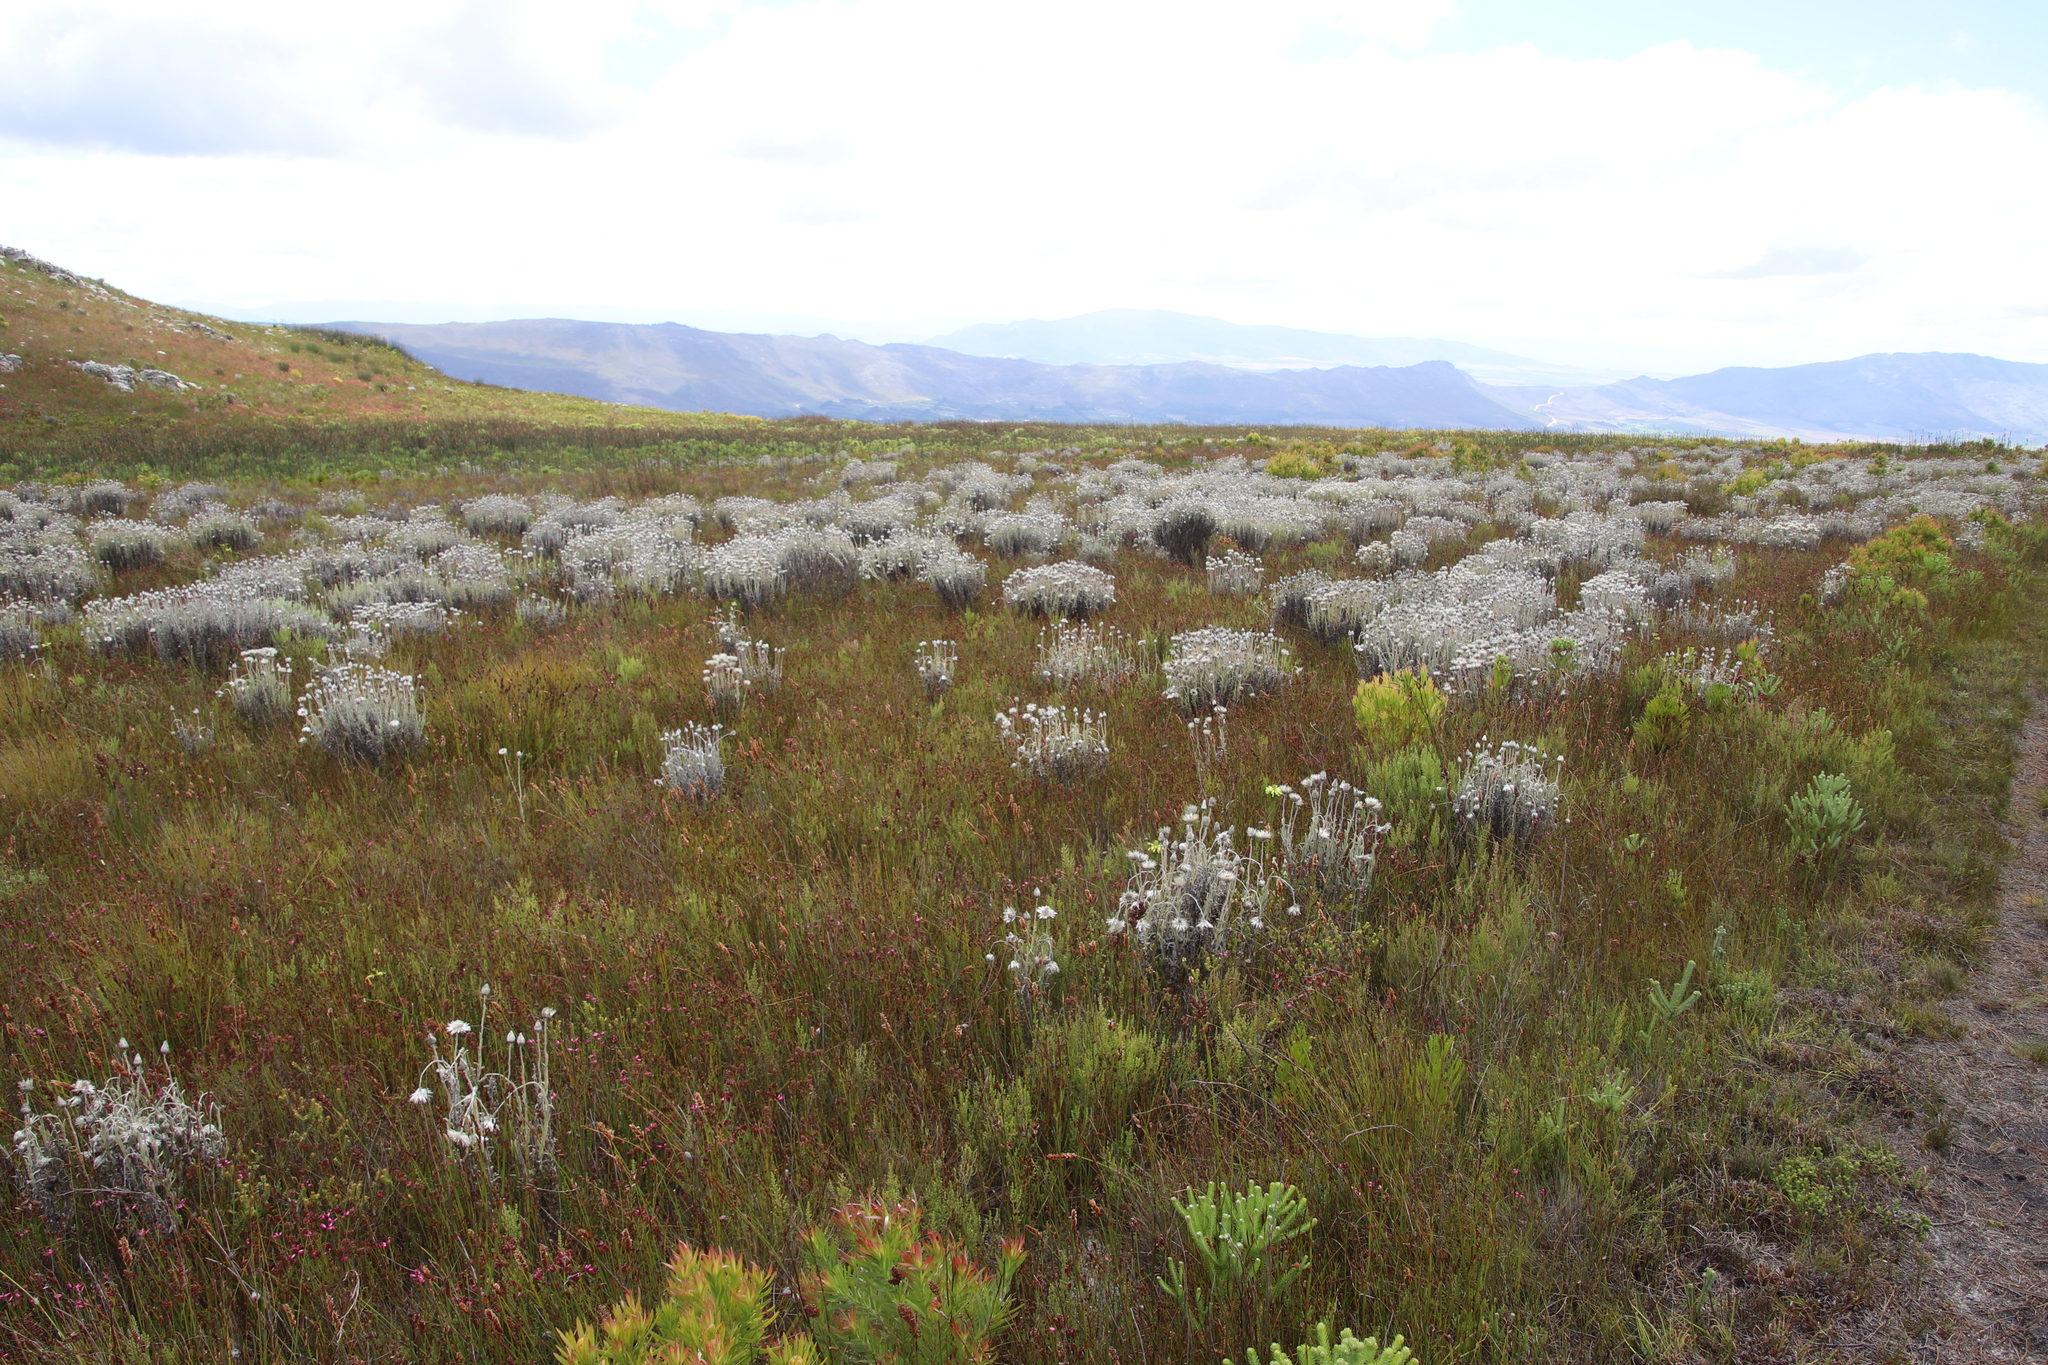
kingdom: Plantae
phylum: Tracheophyta
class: Magnoliopsida
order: Asterales
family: Asteraceae
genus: Syncarpha
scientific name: Syncarpha vestita
